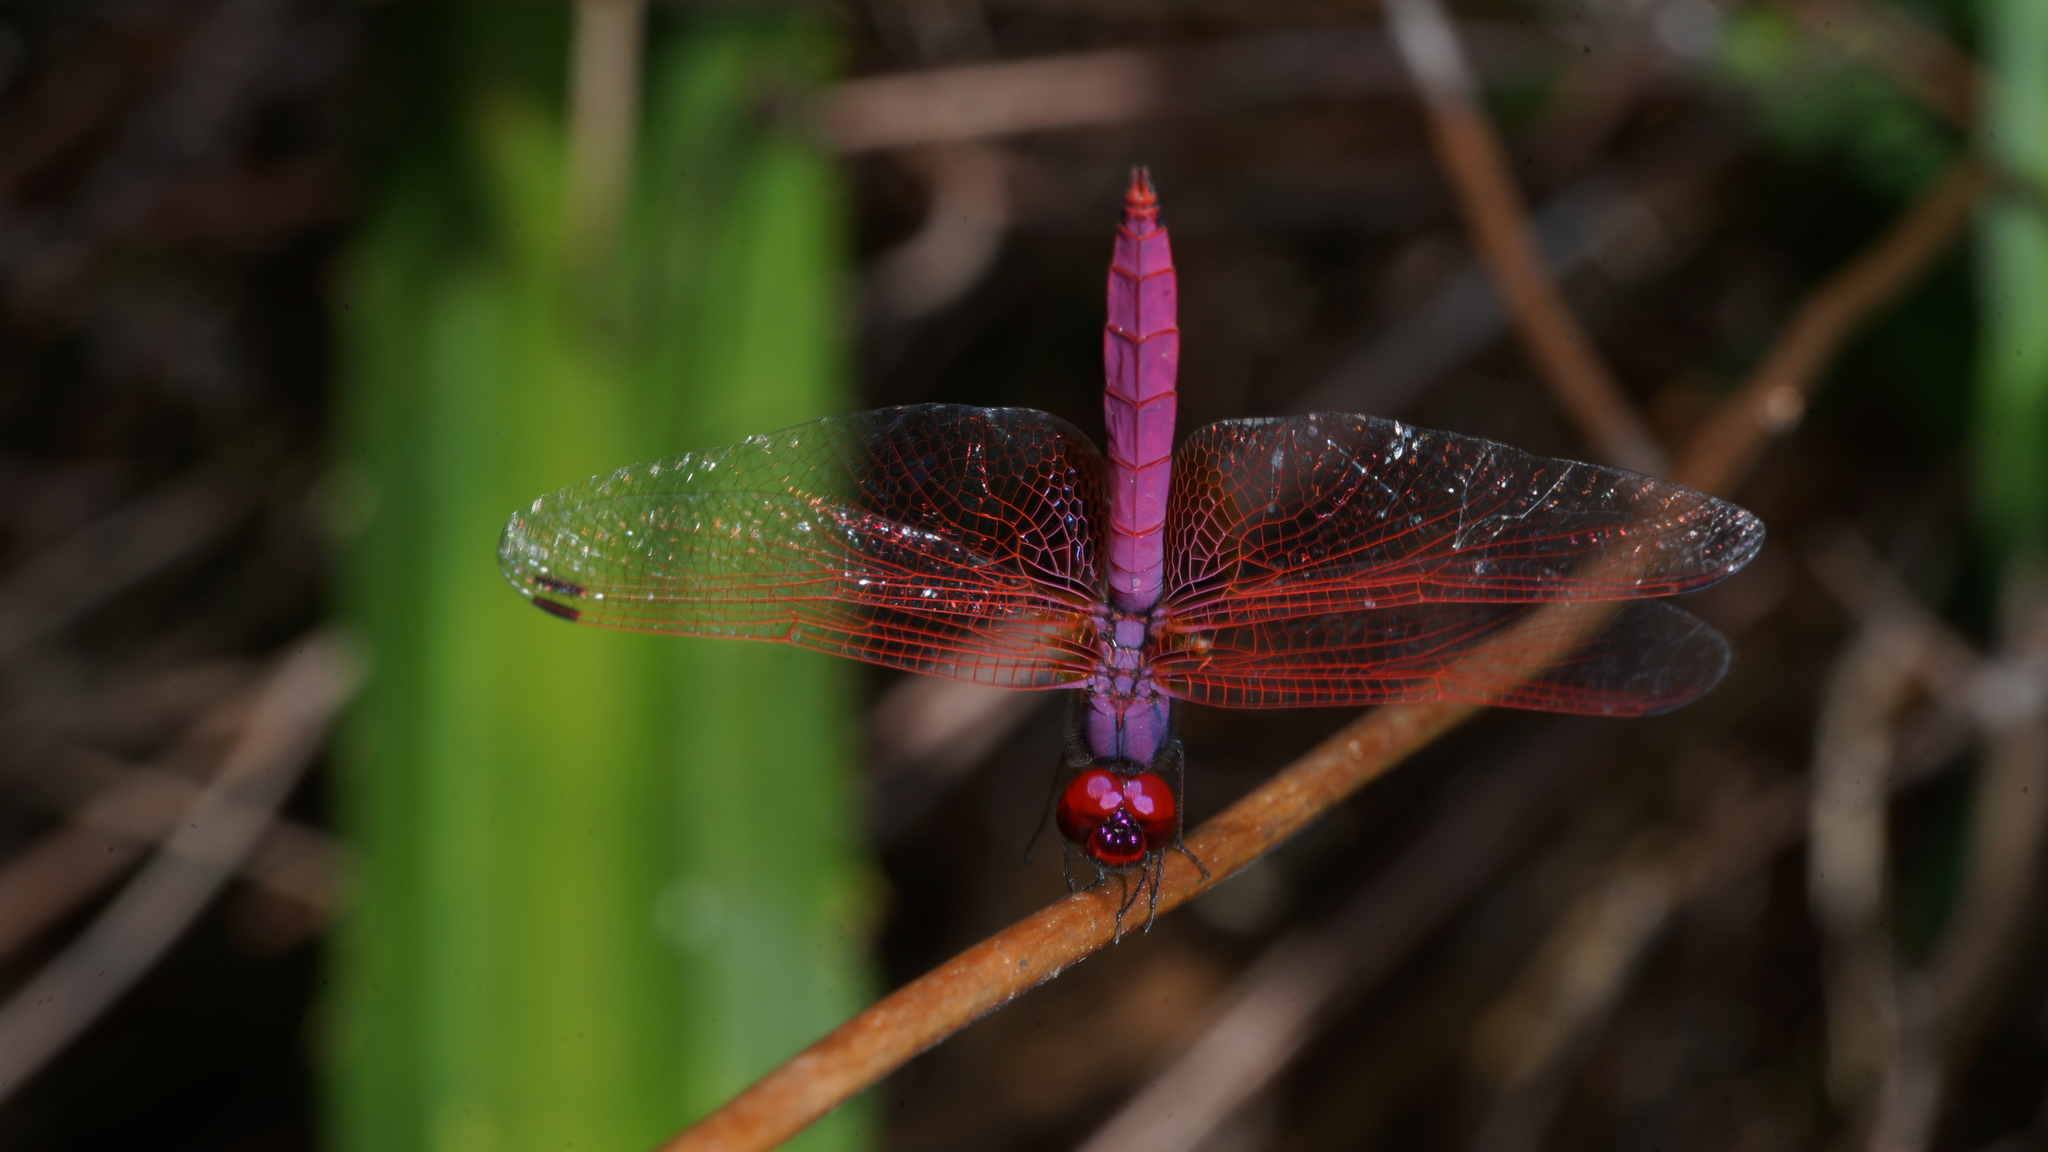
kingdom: Animalia
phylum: Arthropoda
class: Insecta
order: Odonata
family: Libellulidae
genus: Trithemis
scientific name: Trithemis aurora
